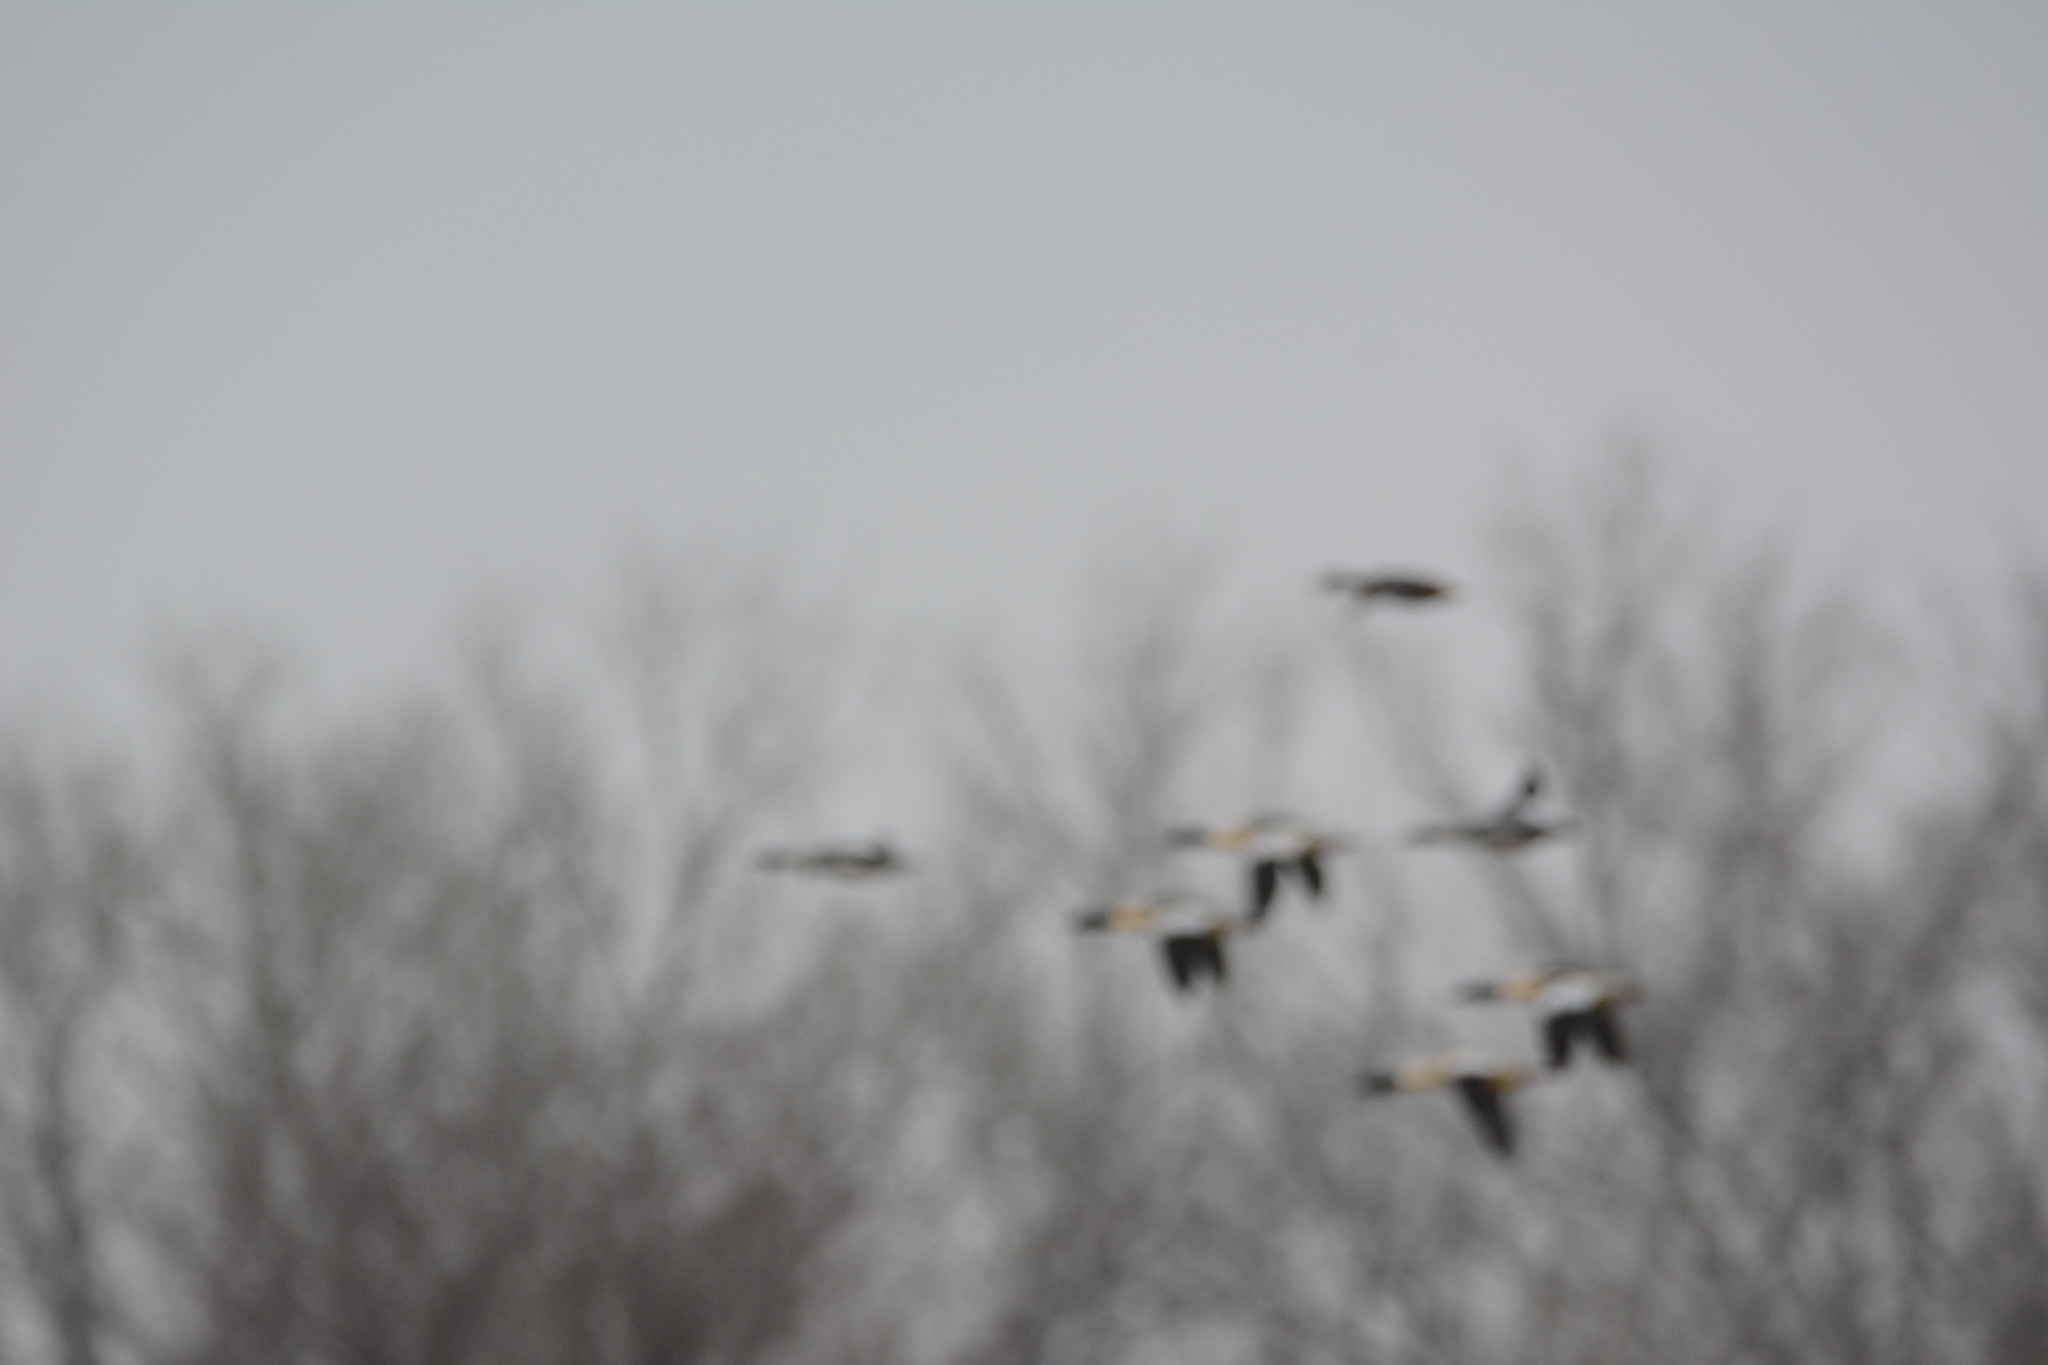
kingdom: Animalia
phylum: Chordata
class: Aves
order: Anseriformes
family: Anatidae
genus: Mergus
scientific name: Mergus merganser
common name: Common merganser
